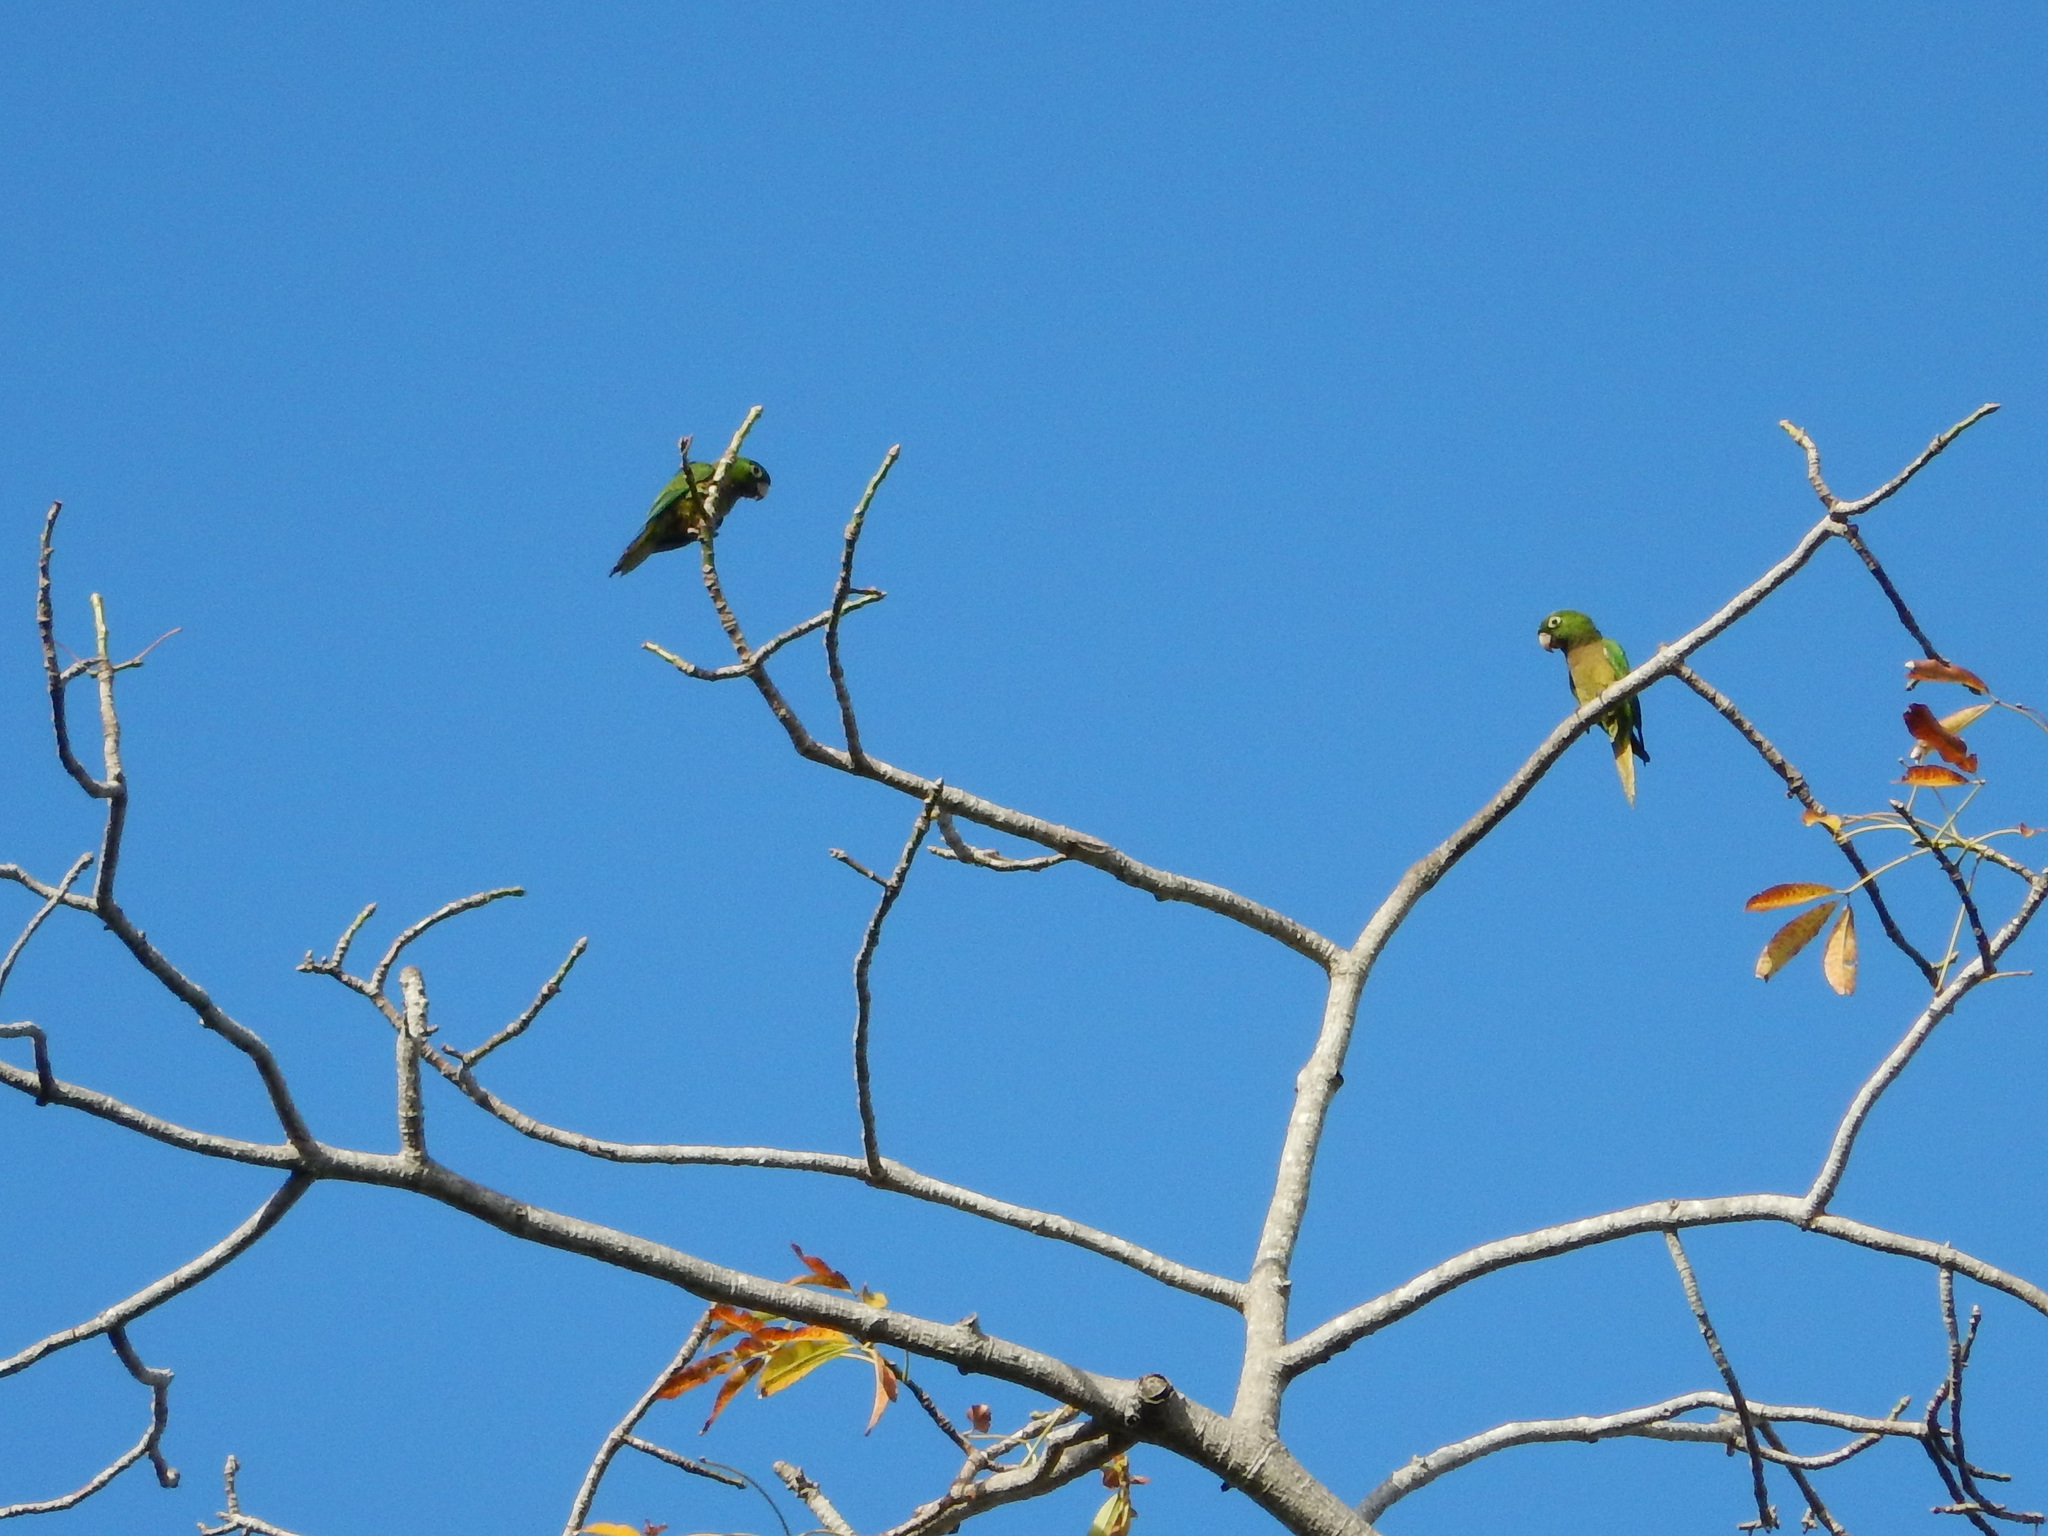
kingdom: Animalia
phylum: Chordata
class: Aves
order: Psittaciformes
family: Psittacidae
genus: Aratinga
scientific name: Aratinga nana
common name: Olive-throated parakeet
